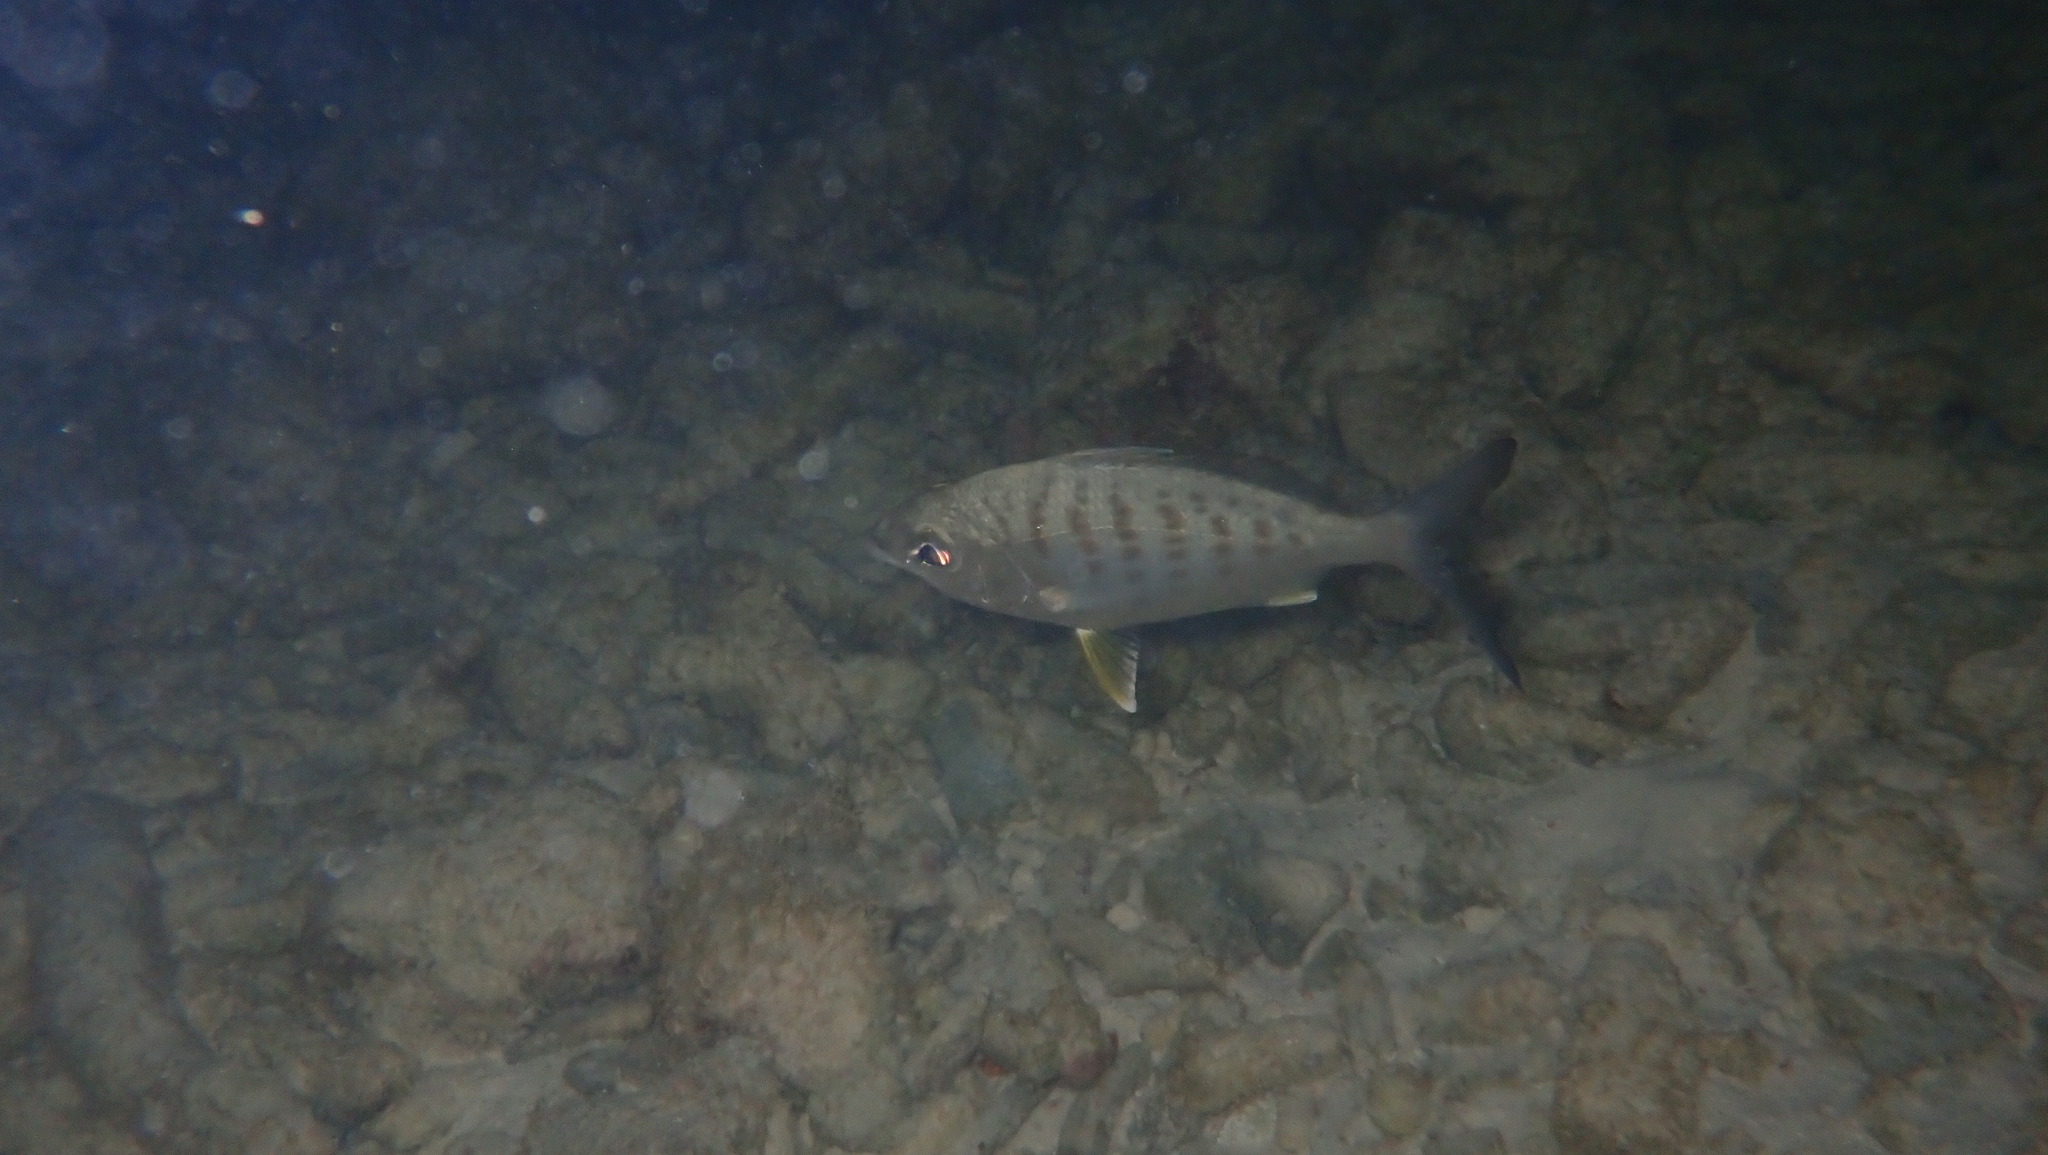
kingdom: Animalia
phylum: Chordata
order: Perciformes
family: Gerreidae
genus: Gerres
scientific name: Gerres cinereus
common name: Hedow
